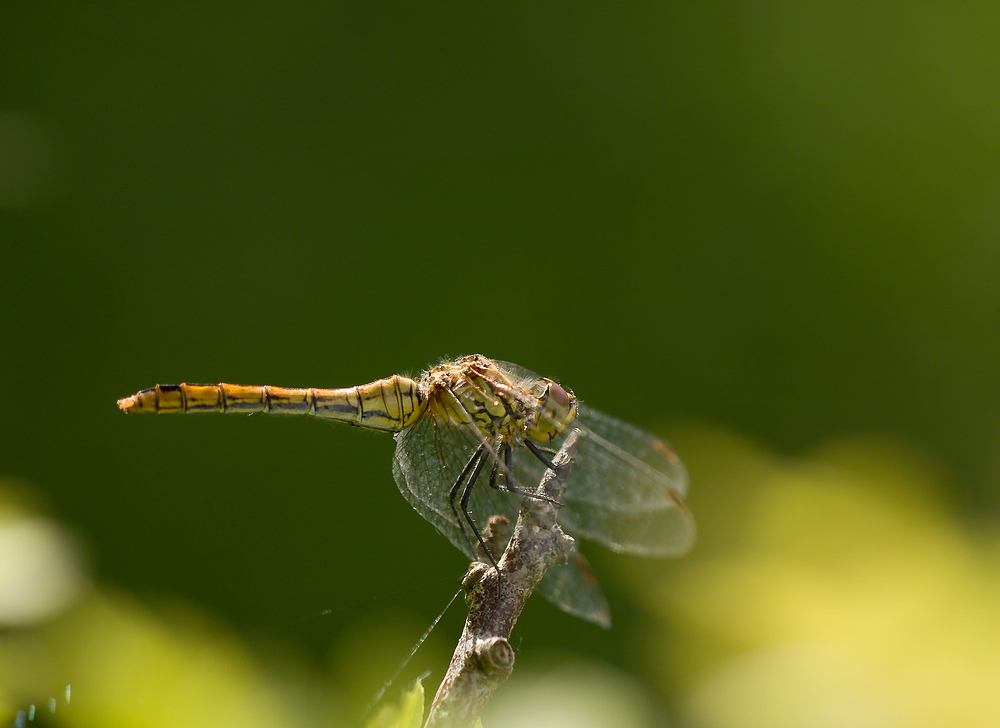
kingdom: Animalia
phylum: Arthropoda
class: Insecta
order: Odonata
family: Libellulidae
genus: Sympetrum
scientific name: Sympetrum sanguineum
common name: Ruddy darter
